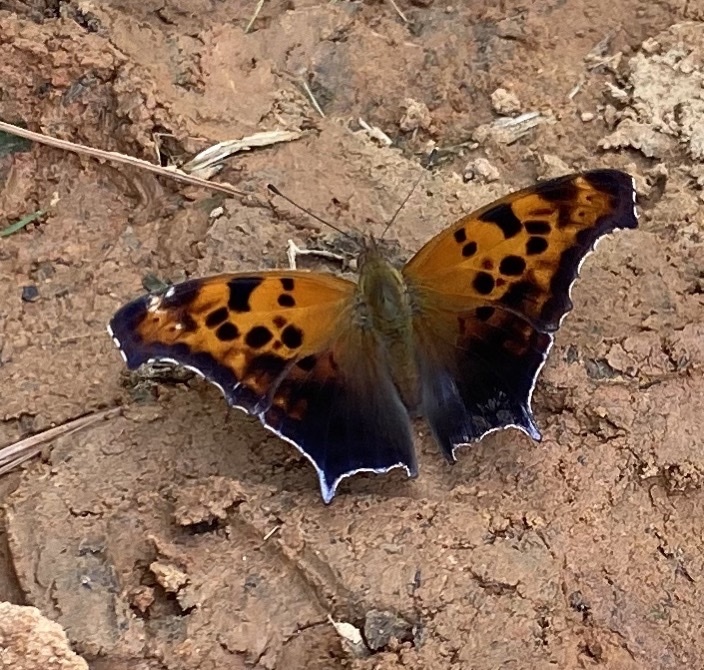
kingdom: Animalia
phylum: Arthropoda
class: Insecta
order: Lepidoptera
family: Nymphalidae
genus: Polygonia
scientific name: Polygonia interrogationis
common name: Question mark
